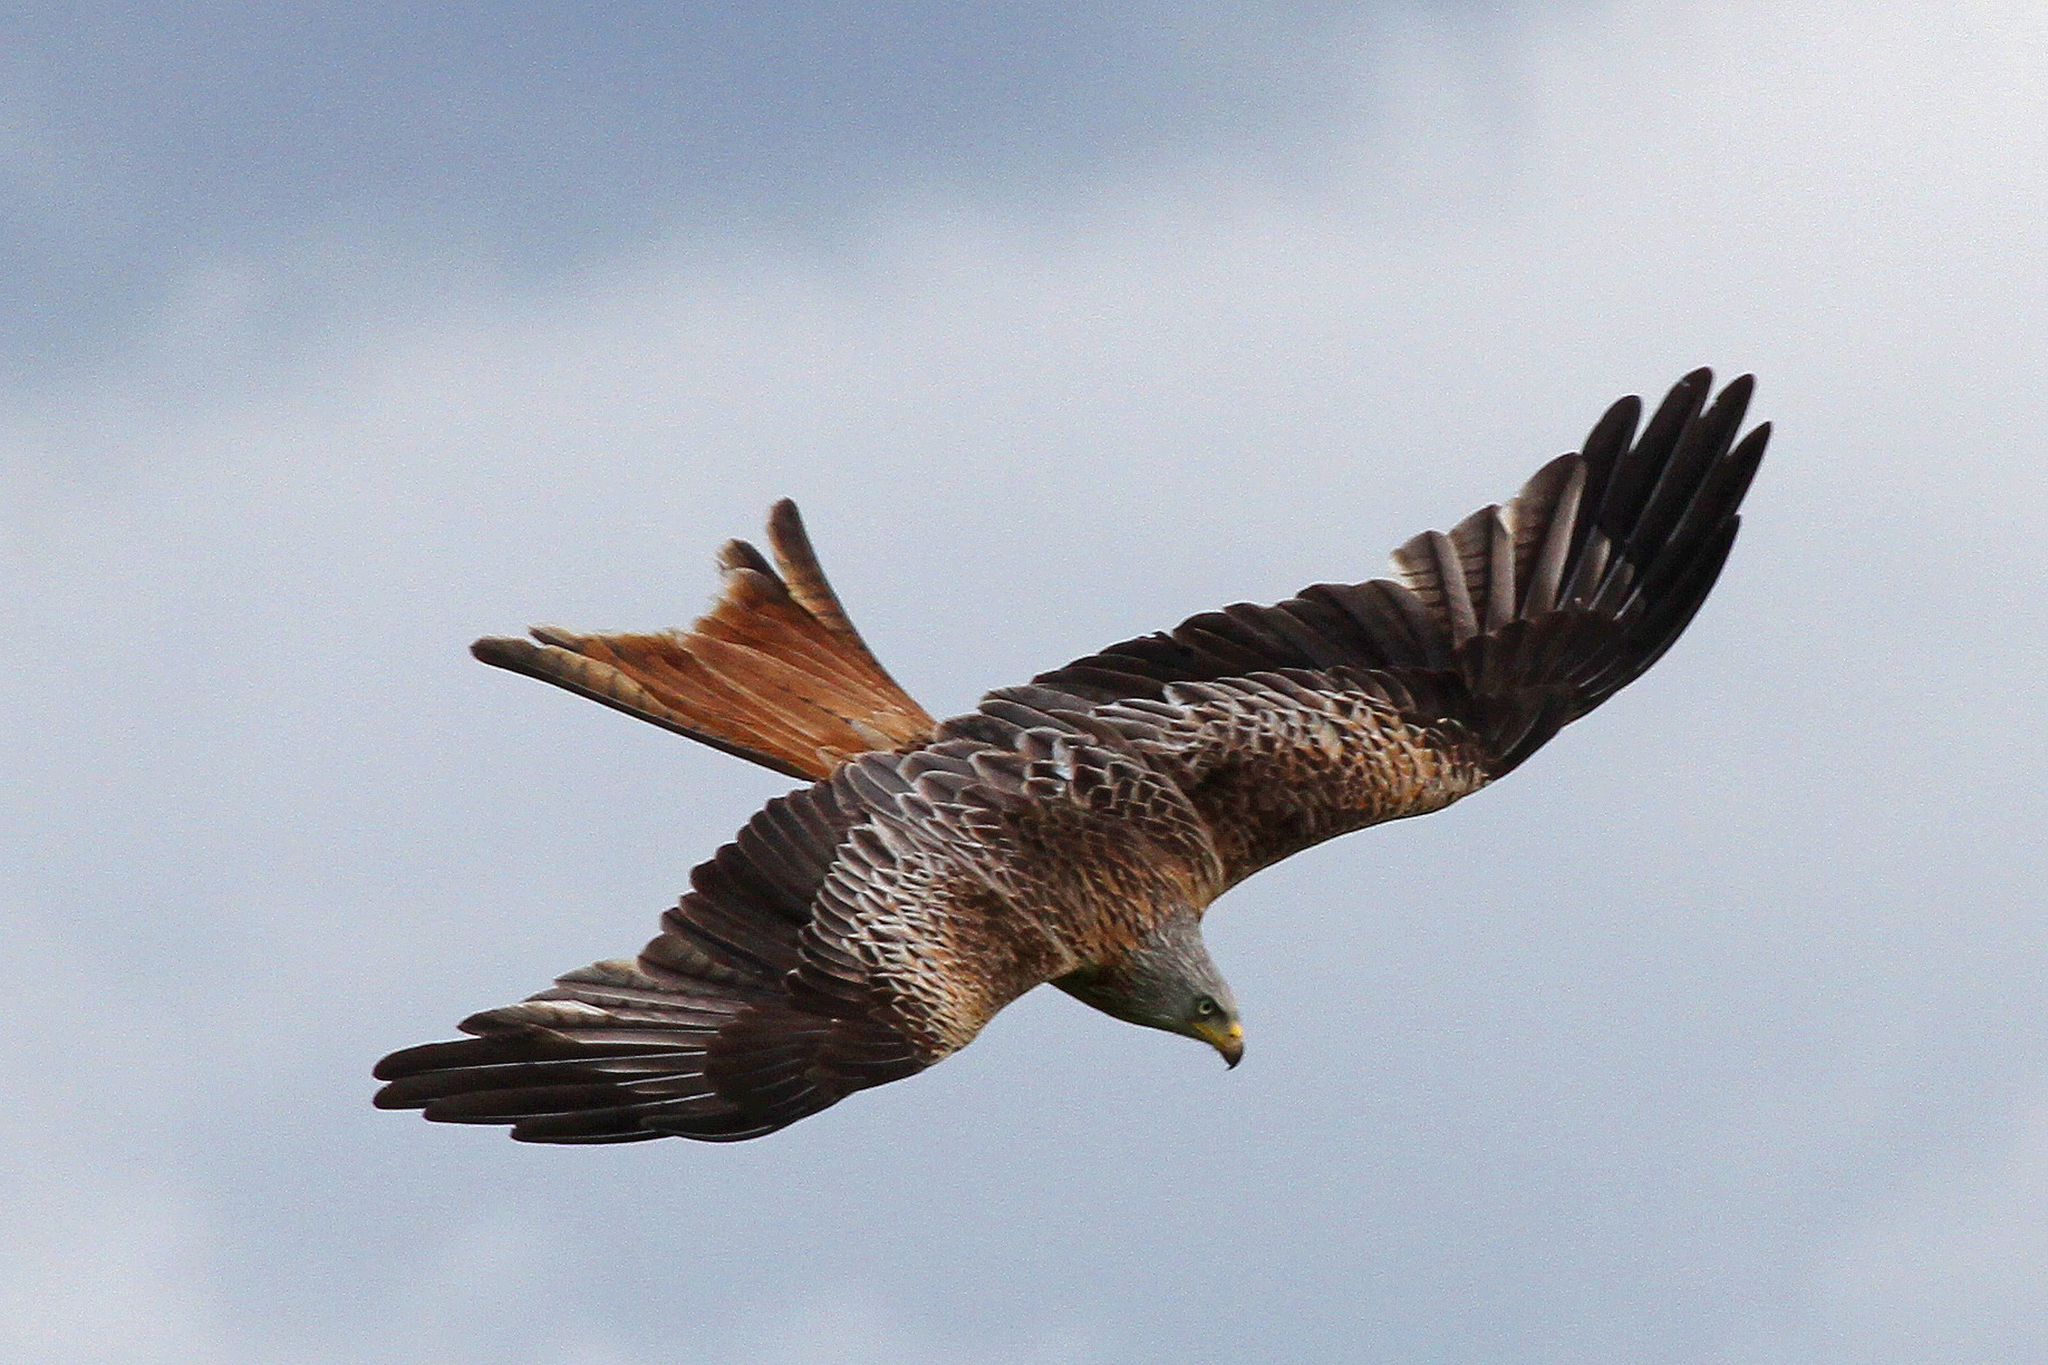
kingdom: Animalia
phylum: Chordata
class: Aves
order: Accipitriformes
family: Accipitridae
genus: Milvus
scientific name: Milvus milvus
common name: Red kite
